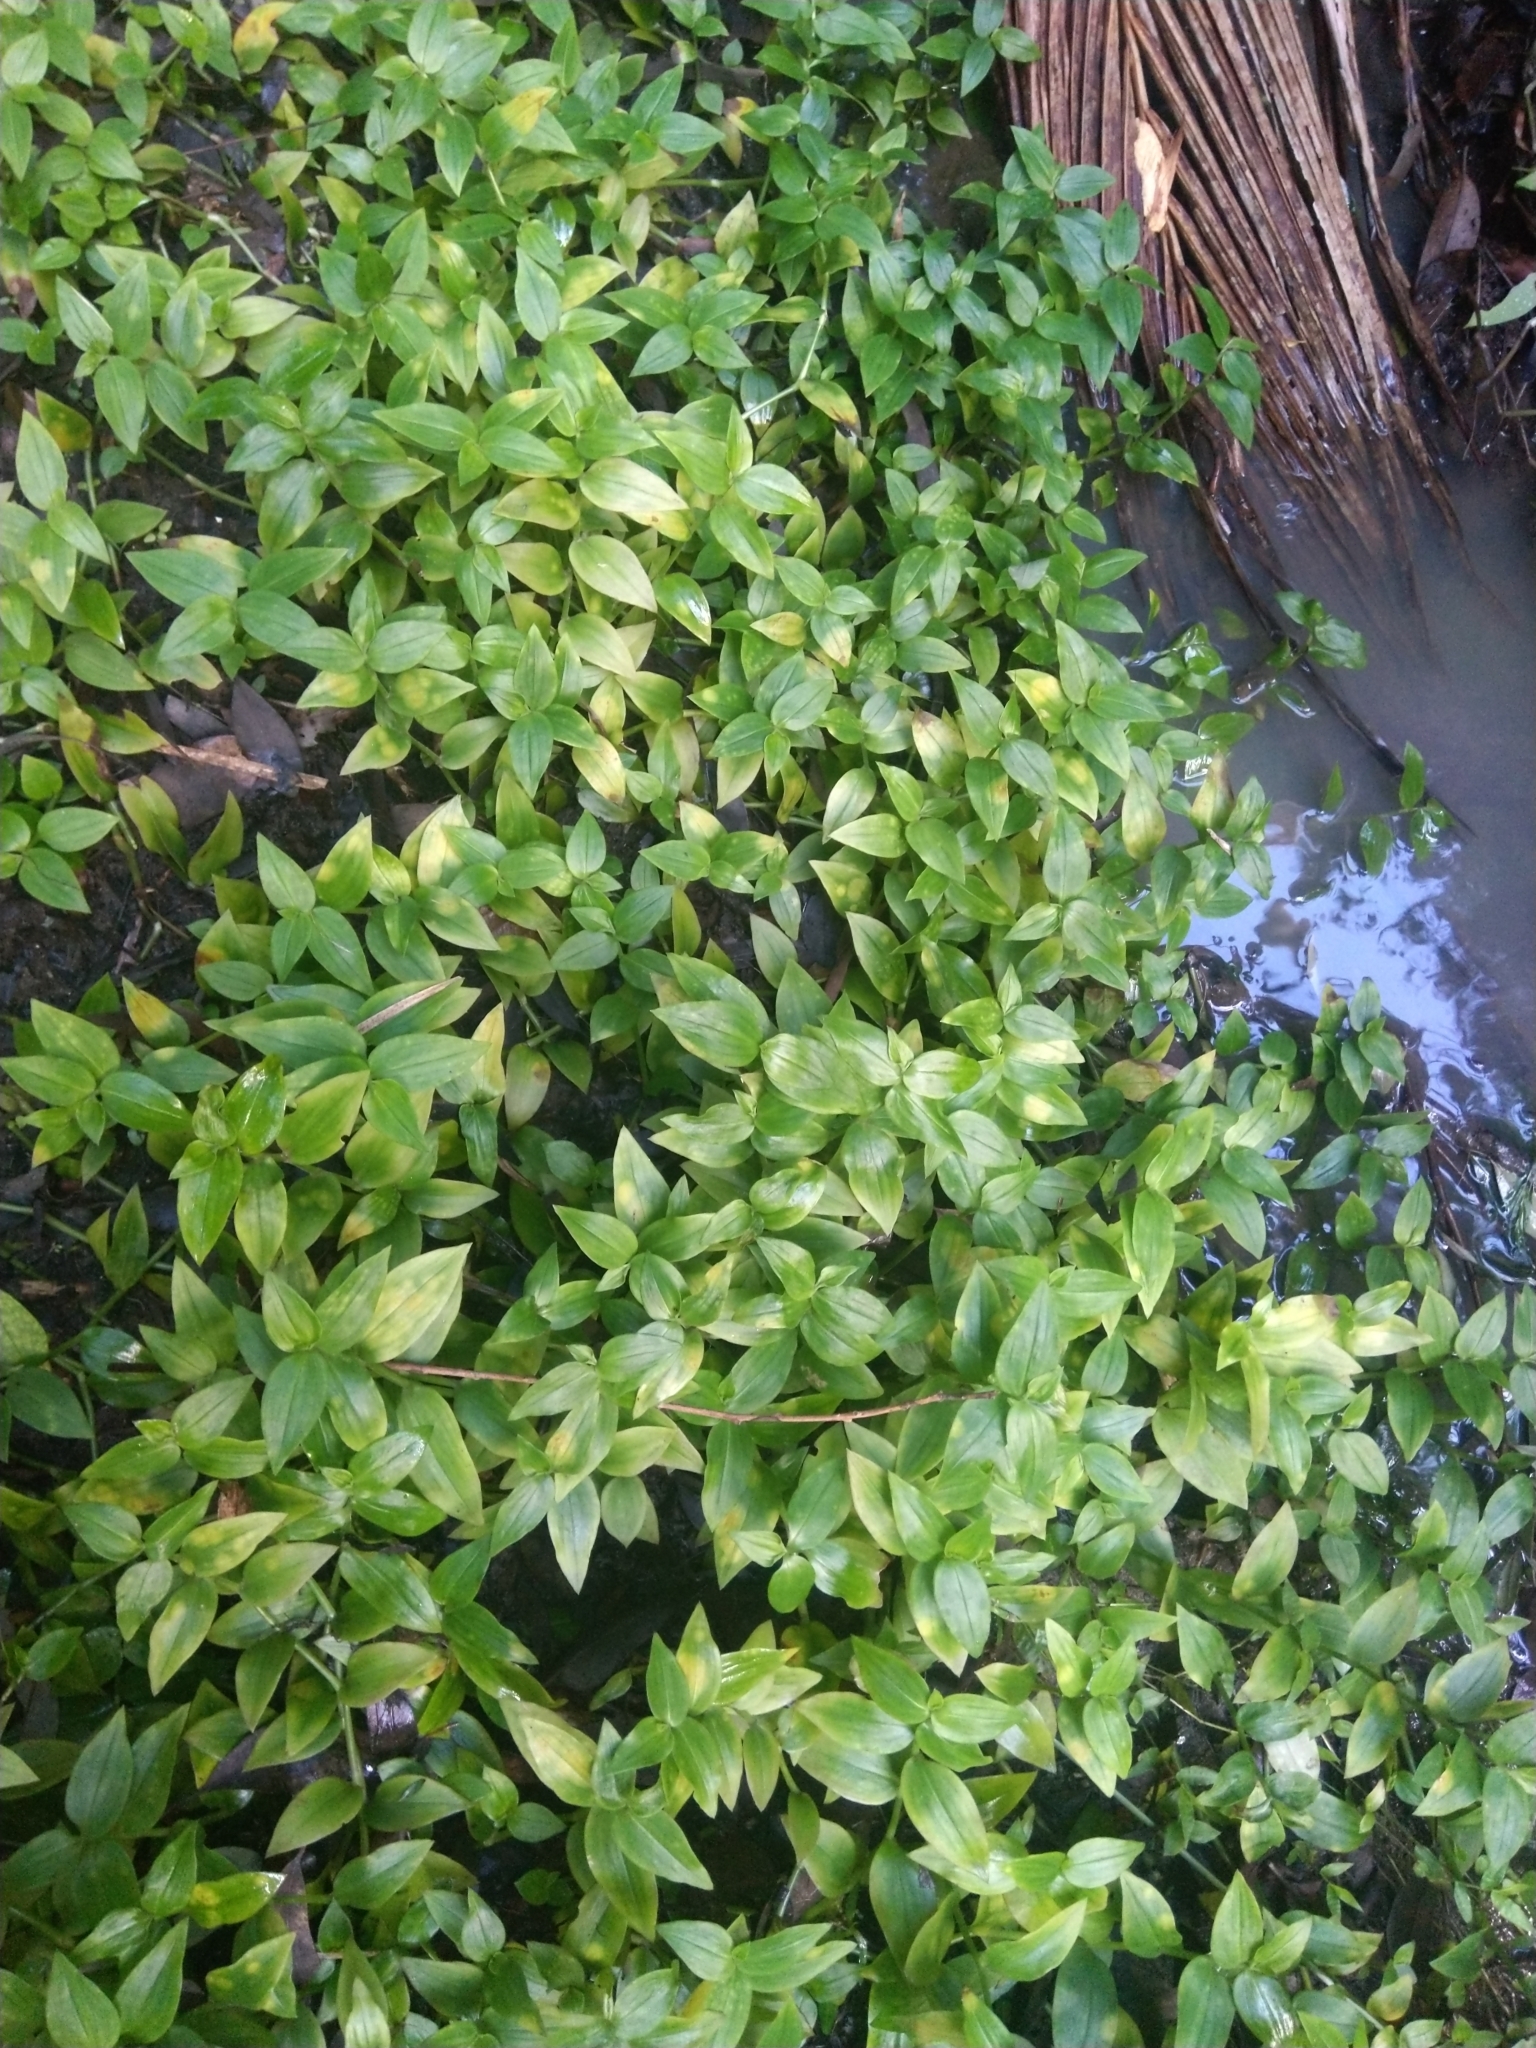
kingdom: Plantae
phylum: Tracheophyta
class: Liliopsida
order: Commelinales
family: Commelinaceae
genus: Tradescantia
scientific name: Tradescantia fluminensis
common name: Wandering-jew
